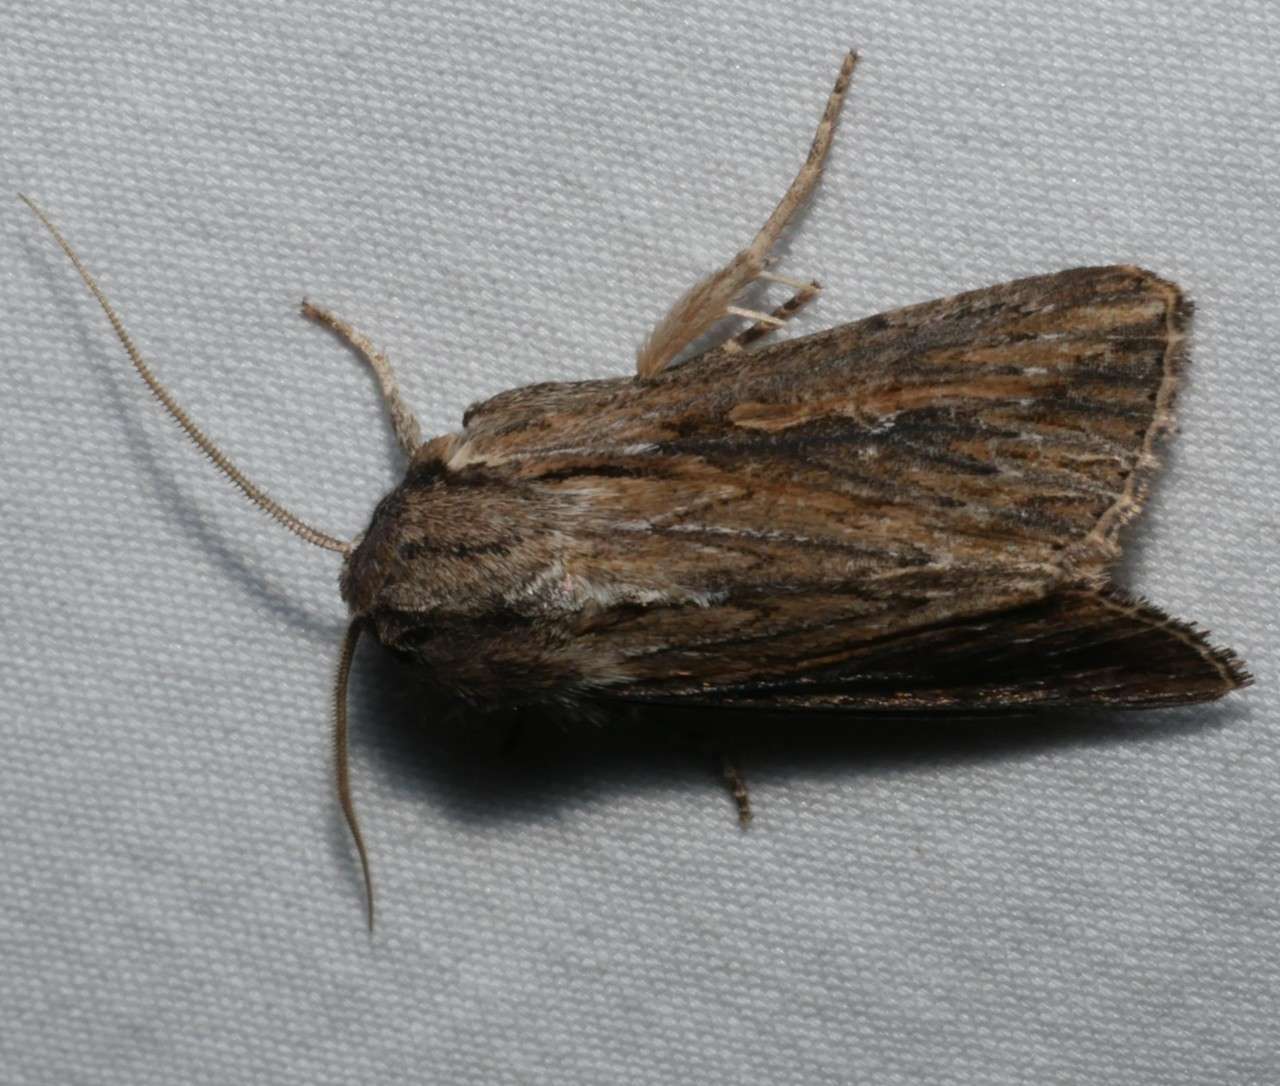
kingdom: Animalia
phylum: Arthropoda
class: Insecta
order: Lepidoptera
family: Noctuidae
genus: Persectania
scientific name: Persectania dyscrita
